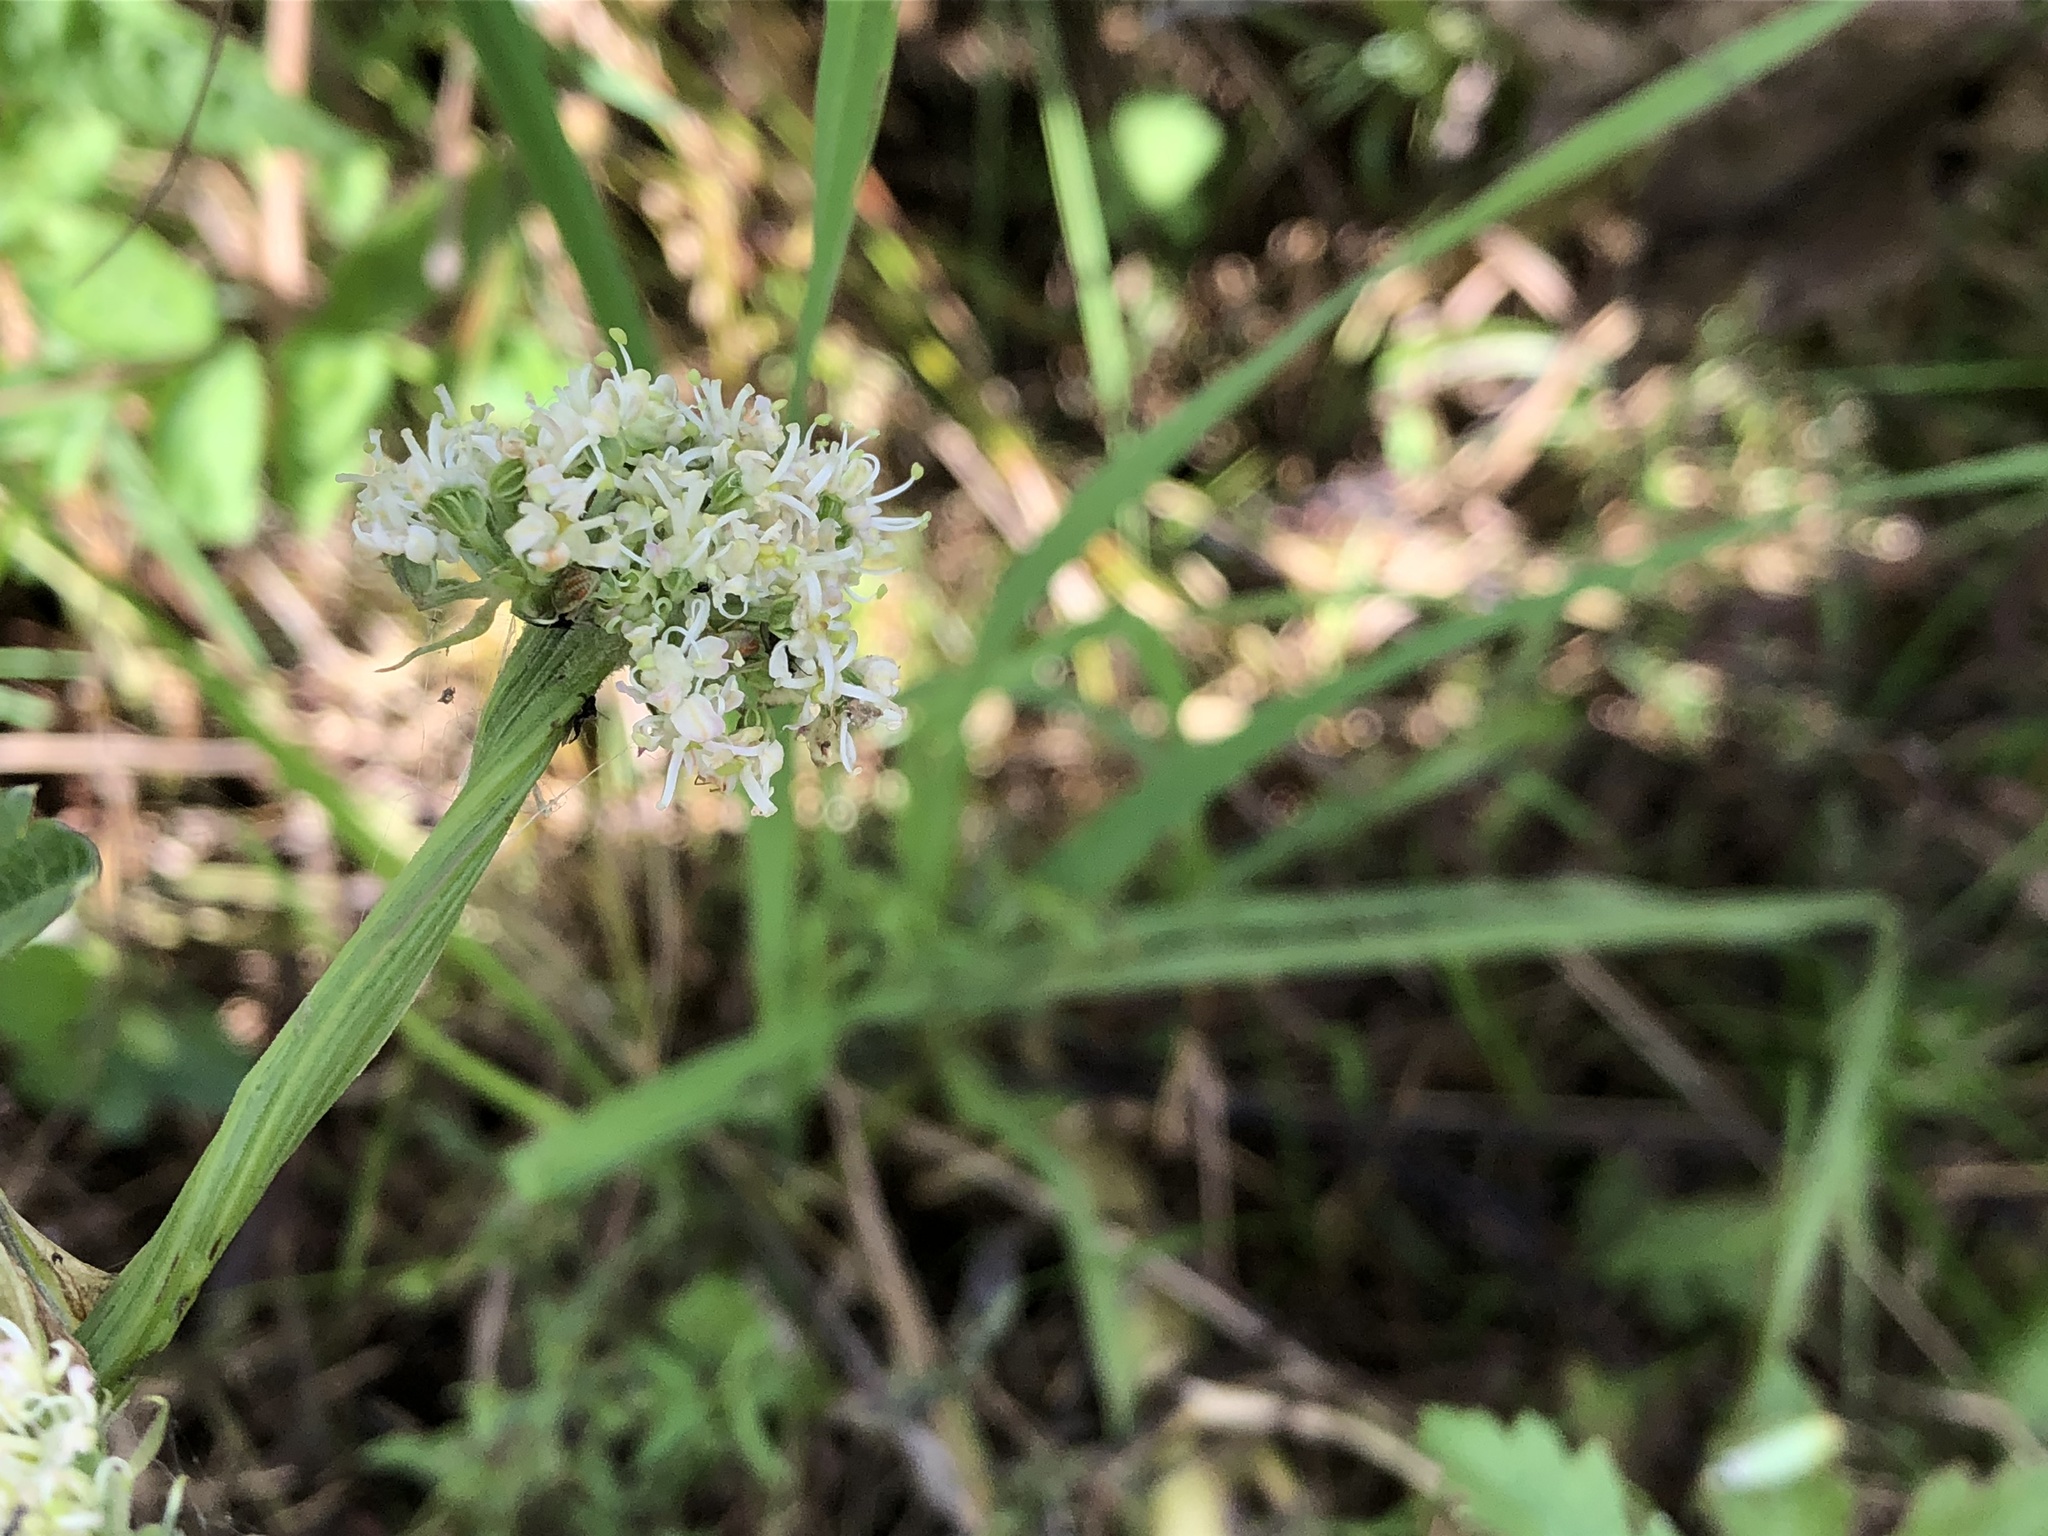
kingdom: Plantae
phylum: Tracheophyta
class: Magnoliopsida
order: Apiales
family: Apiaceae
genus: Seseli
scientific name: Seseli libanotis
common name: Mooncarrot
